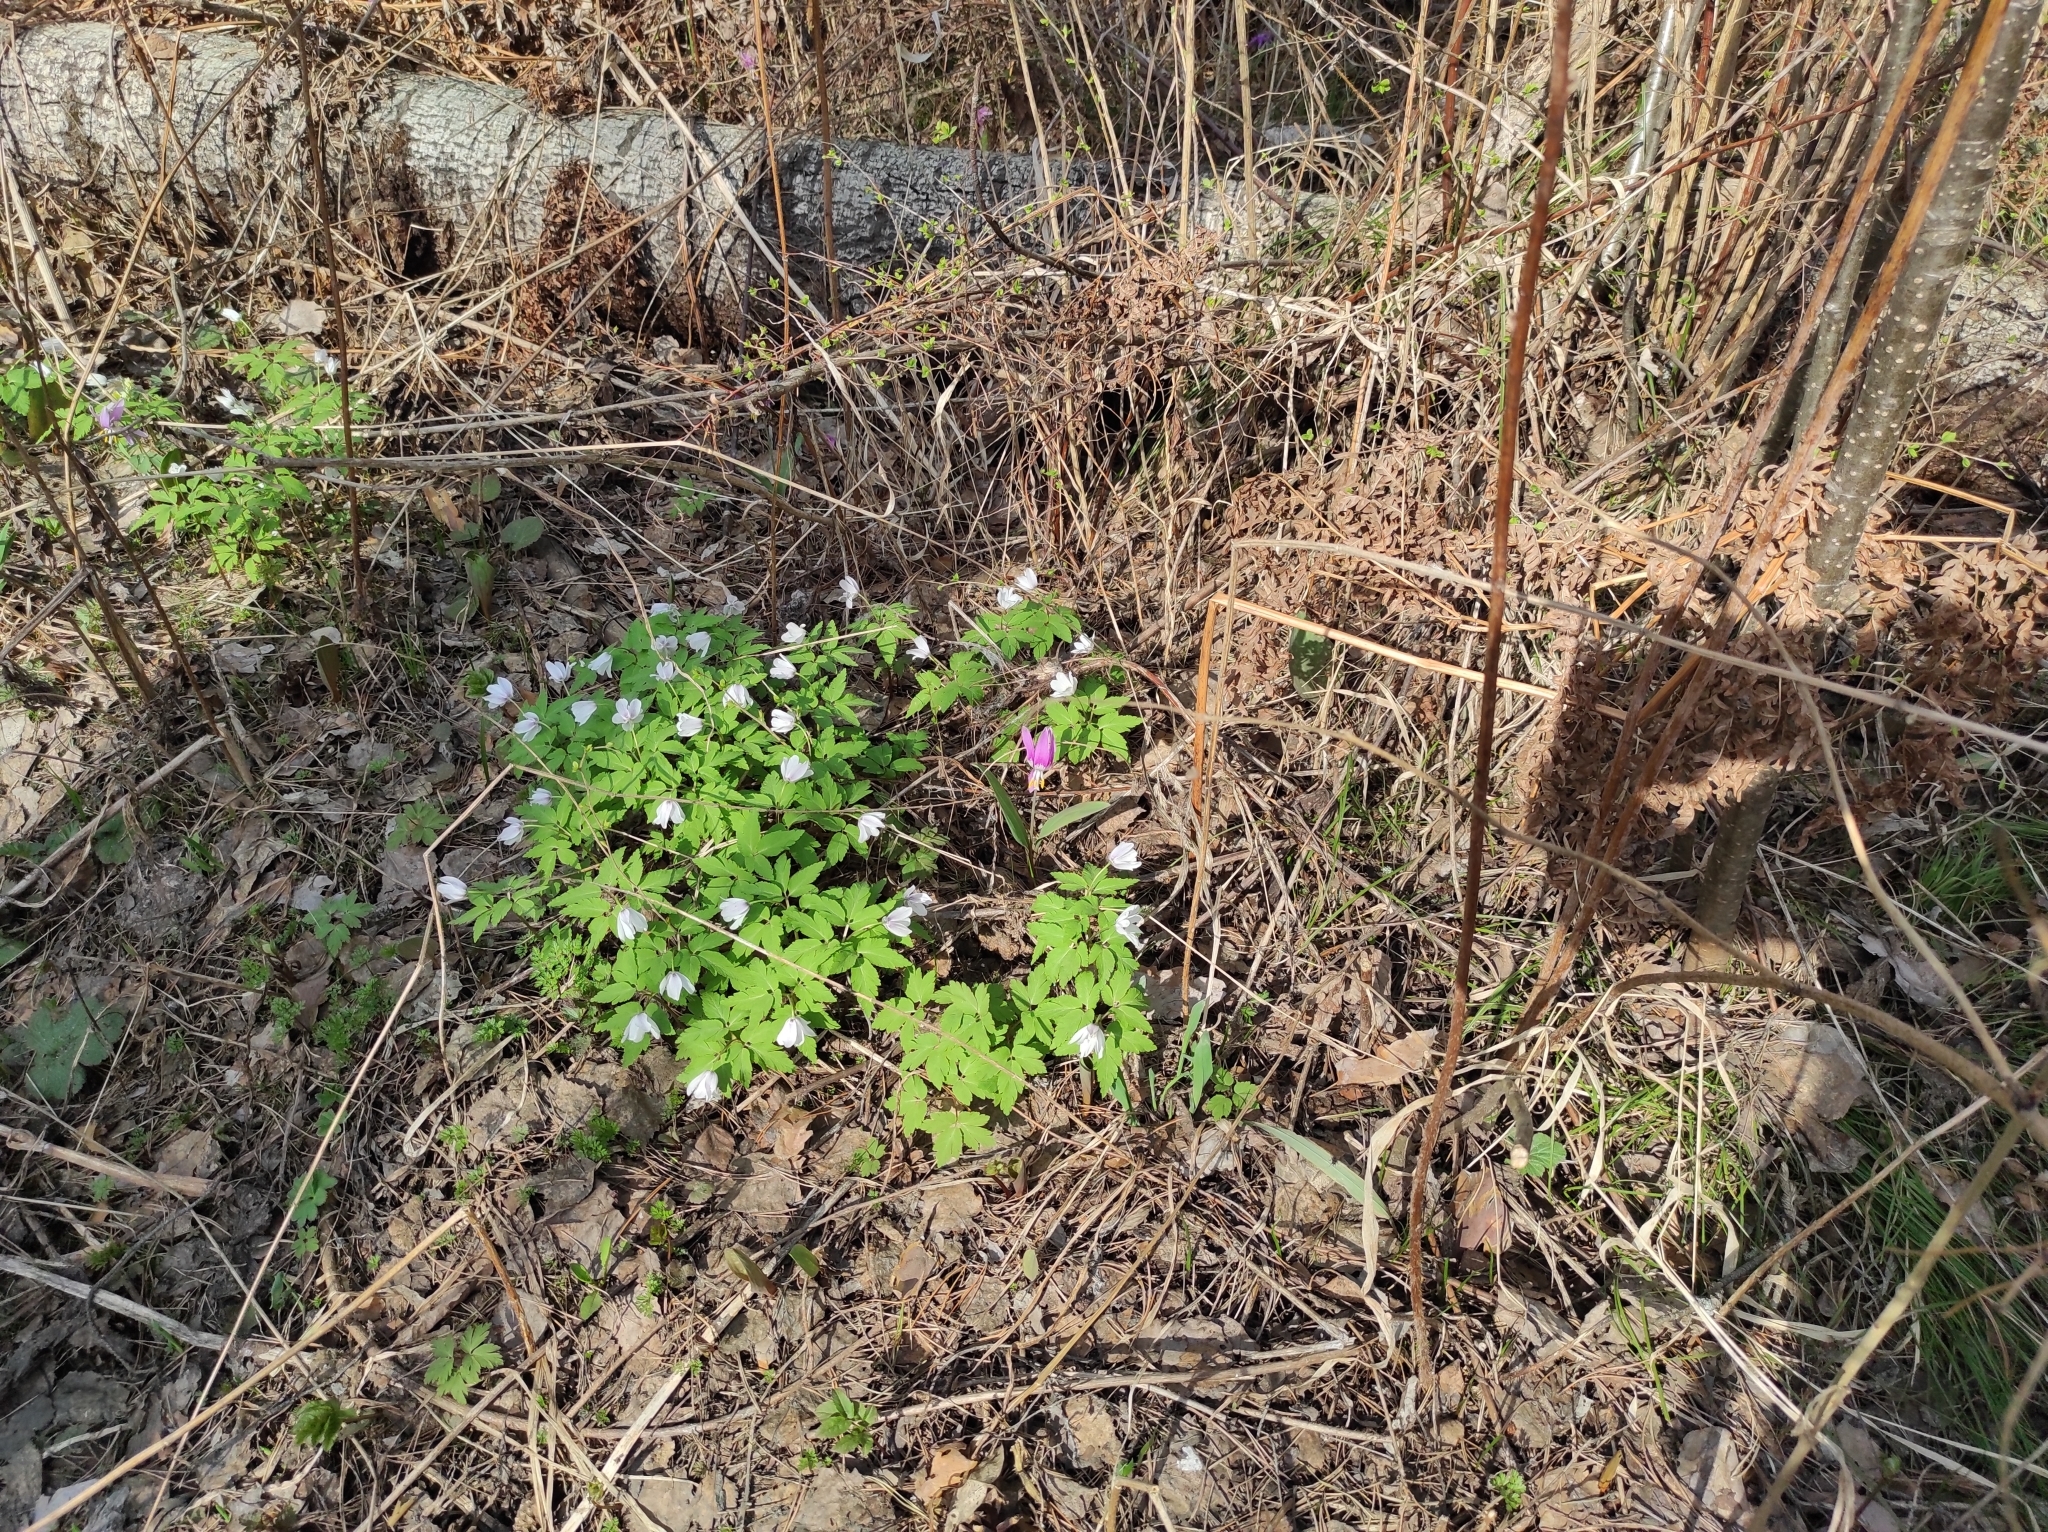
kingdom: Plantae
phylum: Tracheophyta
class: Magnoliopsida
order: Ranunculales
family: Ranunculaceae
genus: Anemone
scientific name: Anemone altaica
